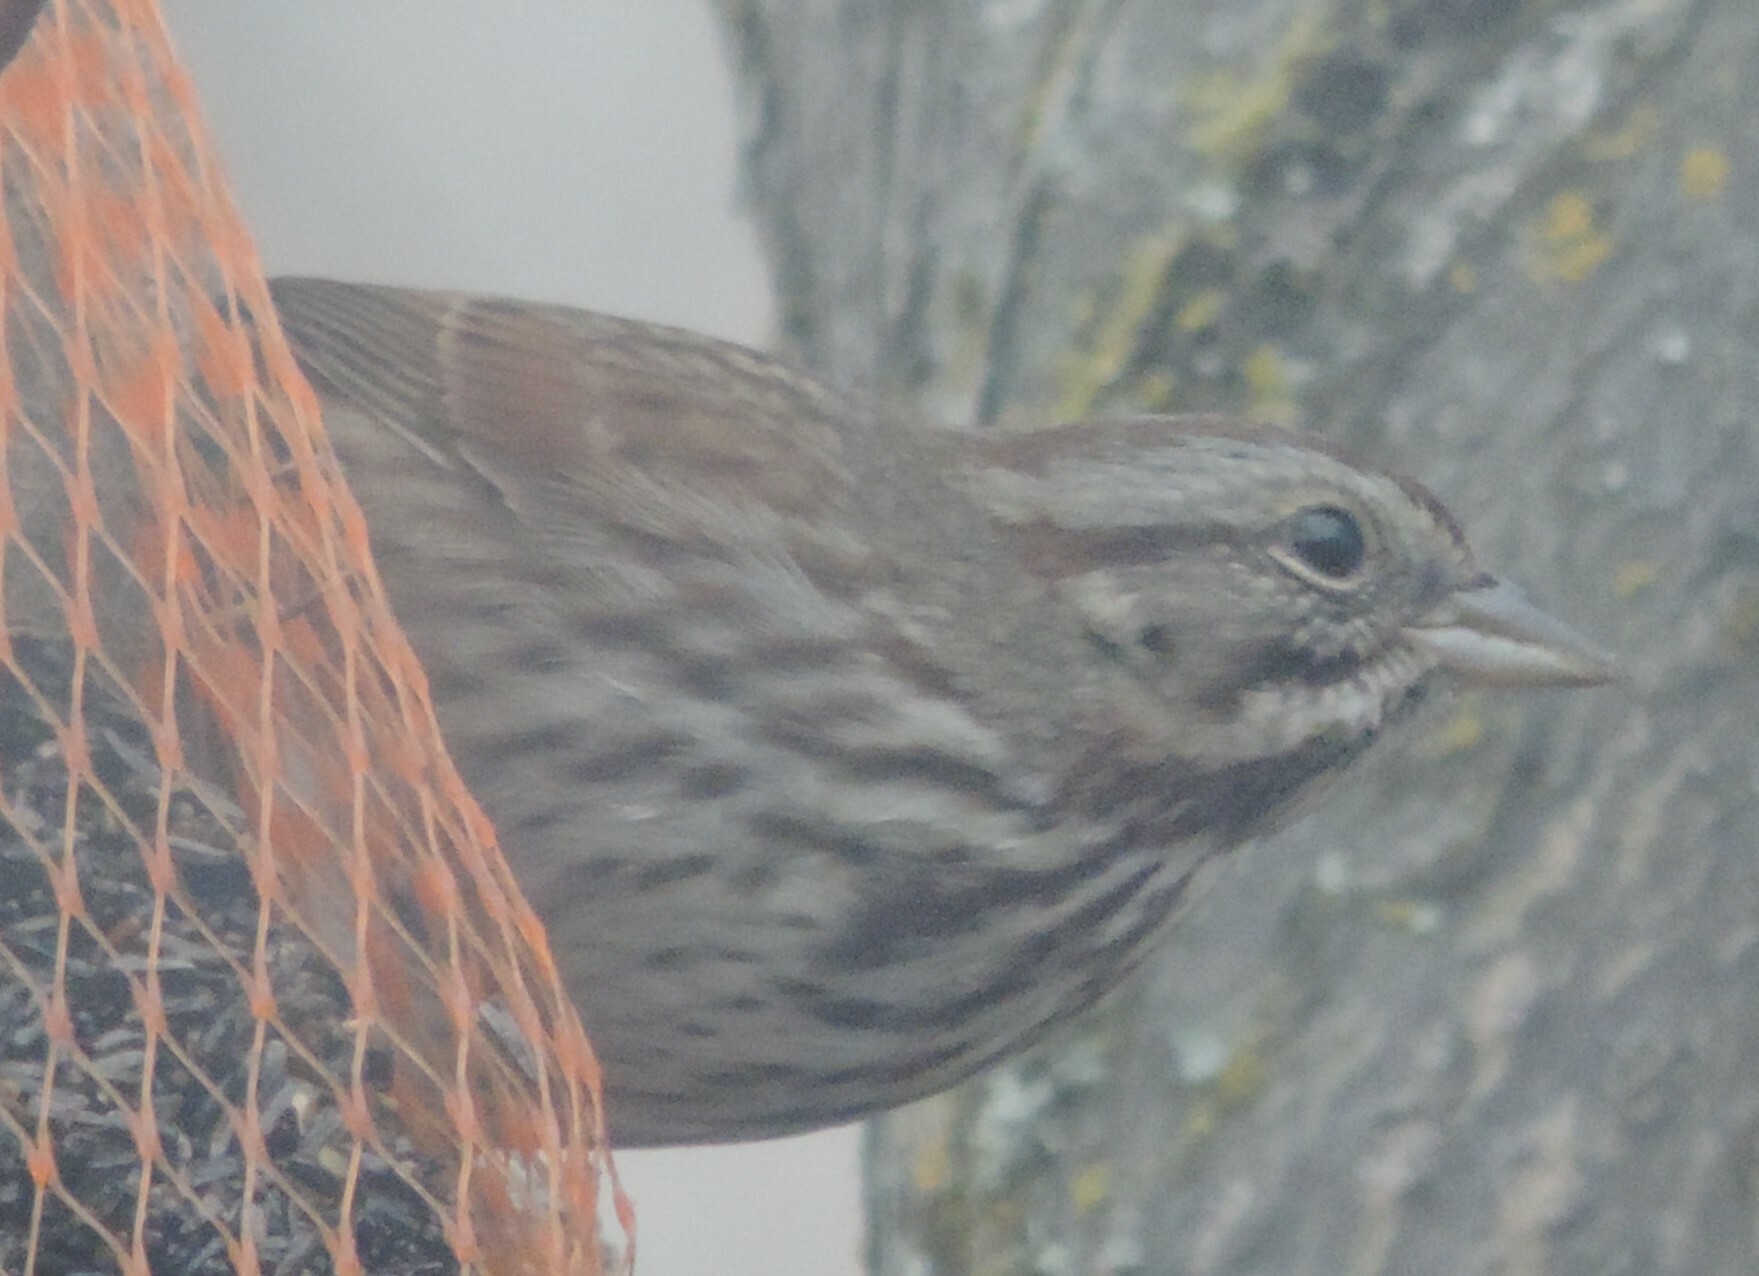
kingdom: Animalia
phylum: Chordata
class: Aves
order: Passeriformes
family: Passerellidae
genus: Melospiza
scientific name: Melospiza melodia
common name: Song sparrow
